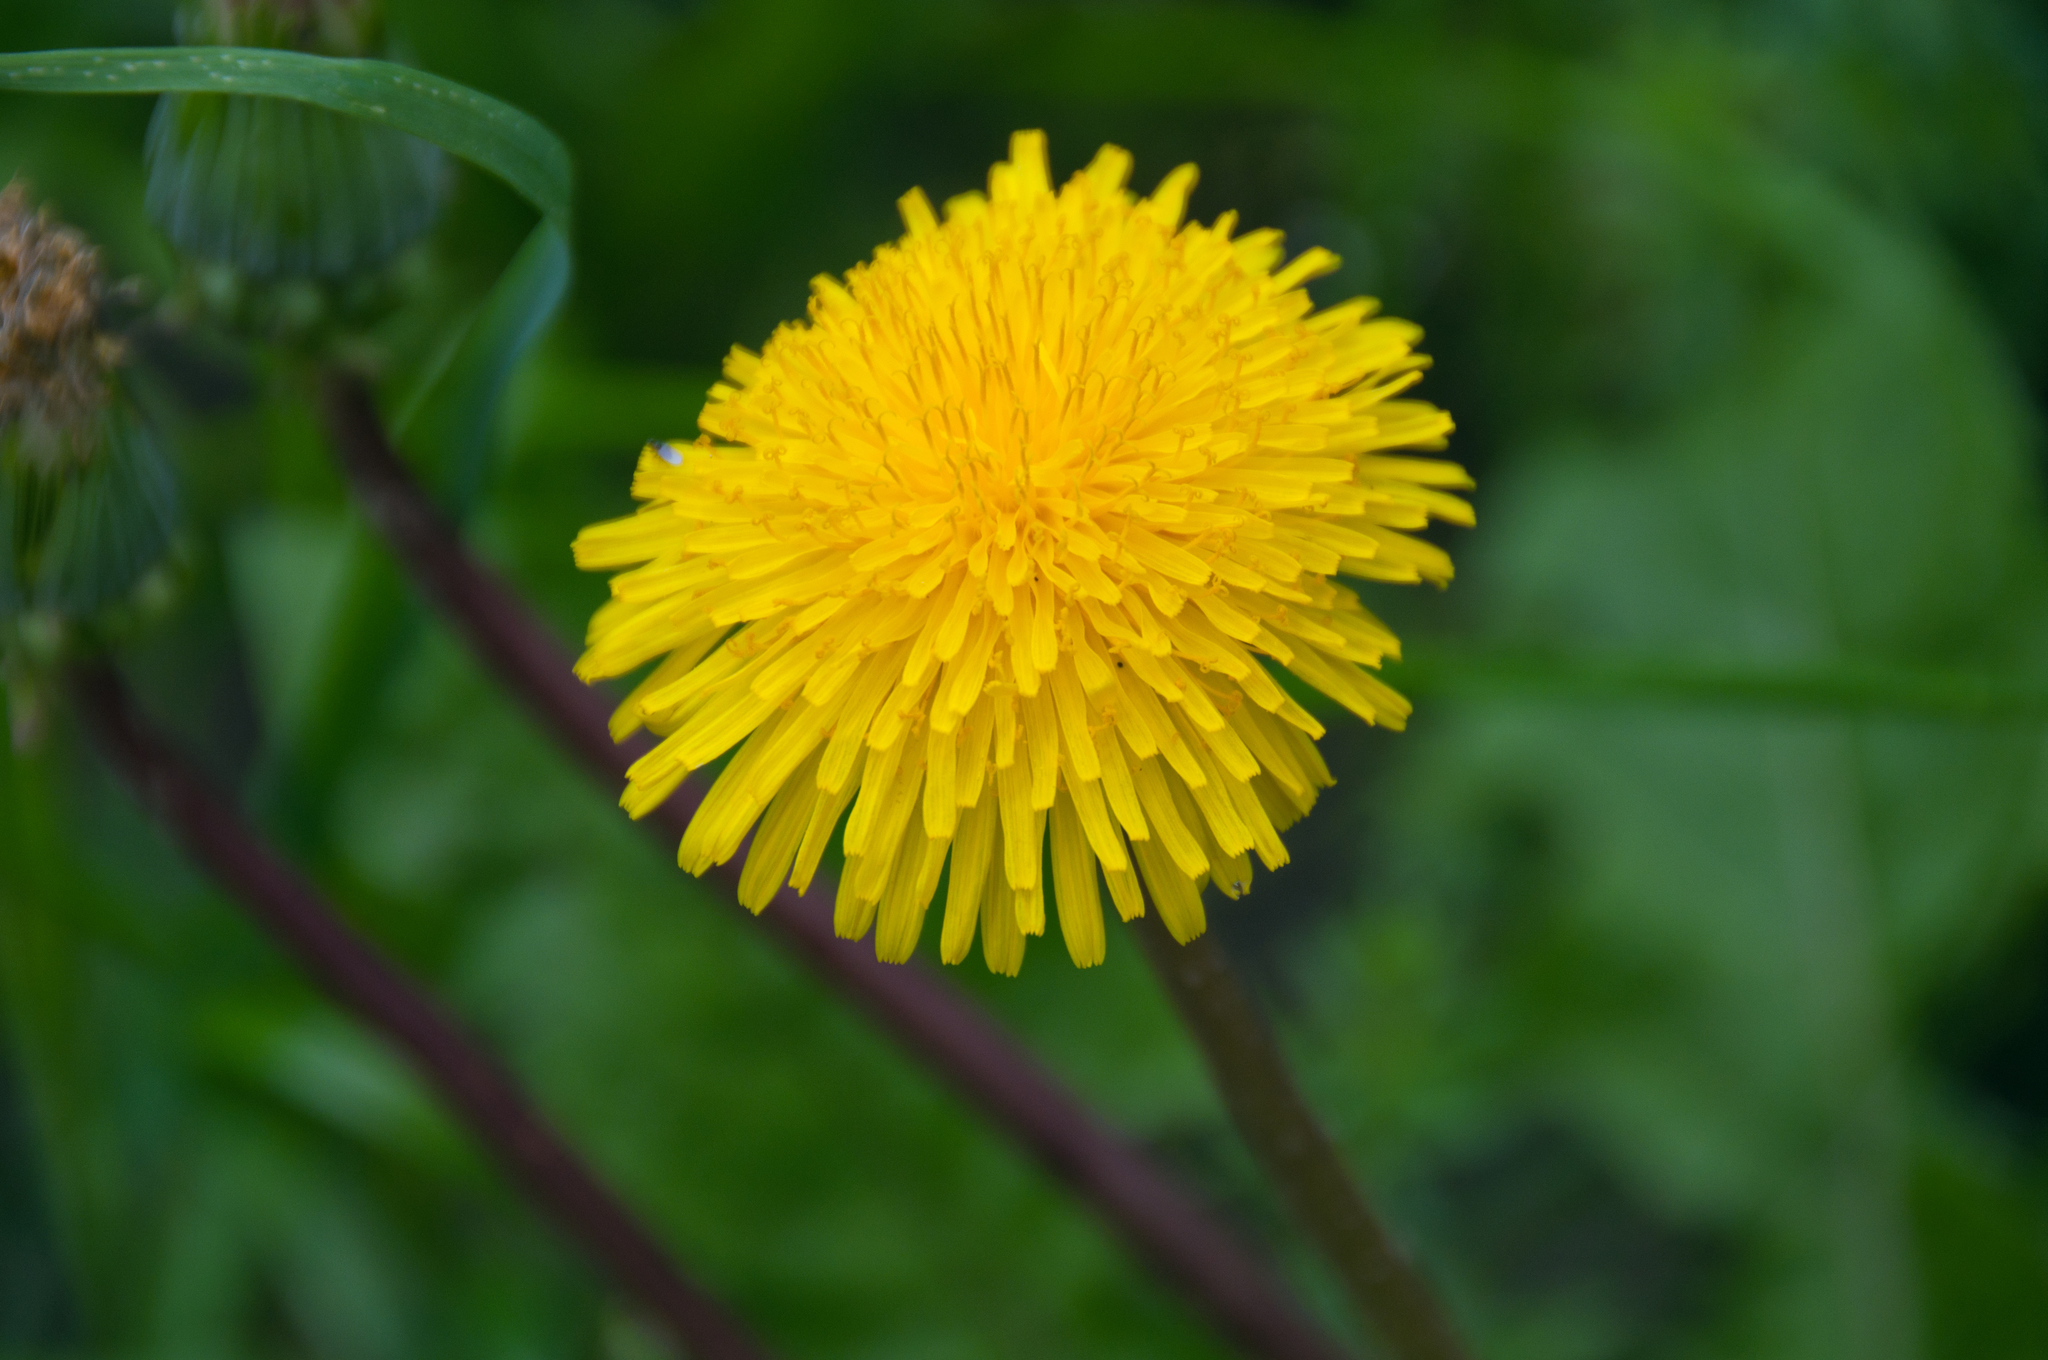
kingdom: Plantae
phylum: Tracheophyta
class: Magnoliopsida
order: Asterales
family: Asteraceae
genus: Taraxacum
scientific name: Taraxacum officinale
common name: Common dandelion
